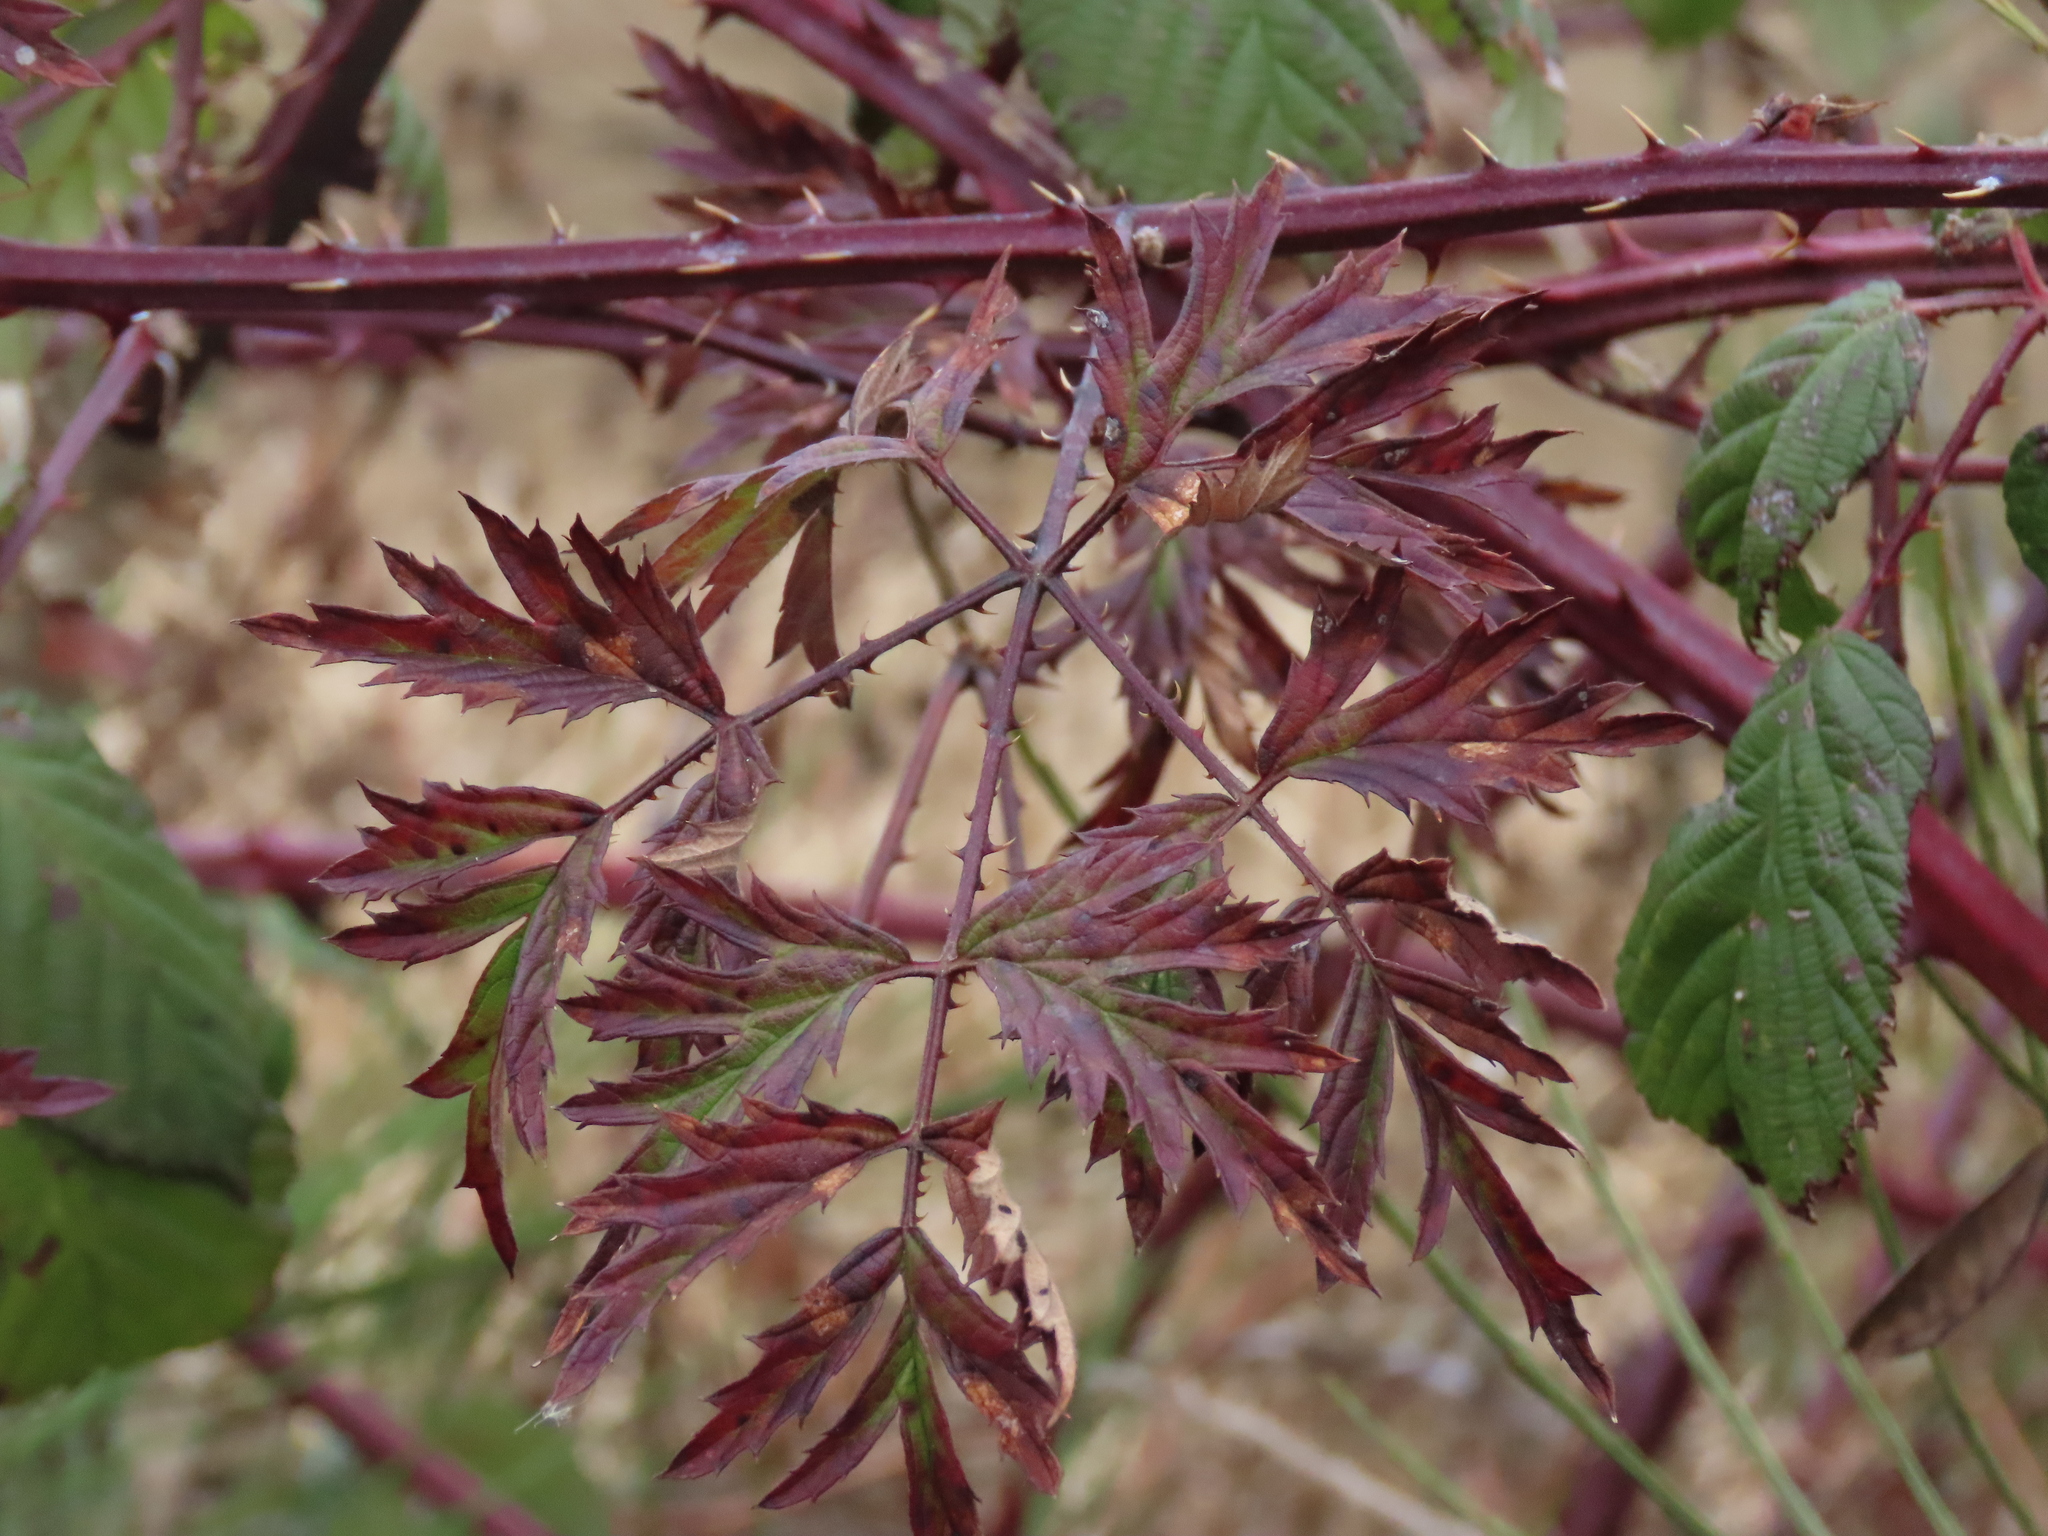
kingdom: Plantae
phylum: Tracheophyta
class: Magnoliopsida
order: Rosales
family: Rosaceae
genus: Rubus
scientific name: Rubus laciniatus
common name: Evergreen blackberry
